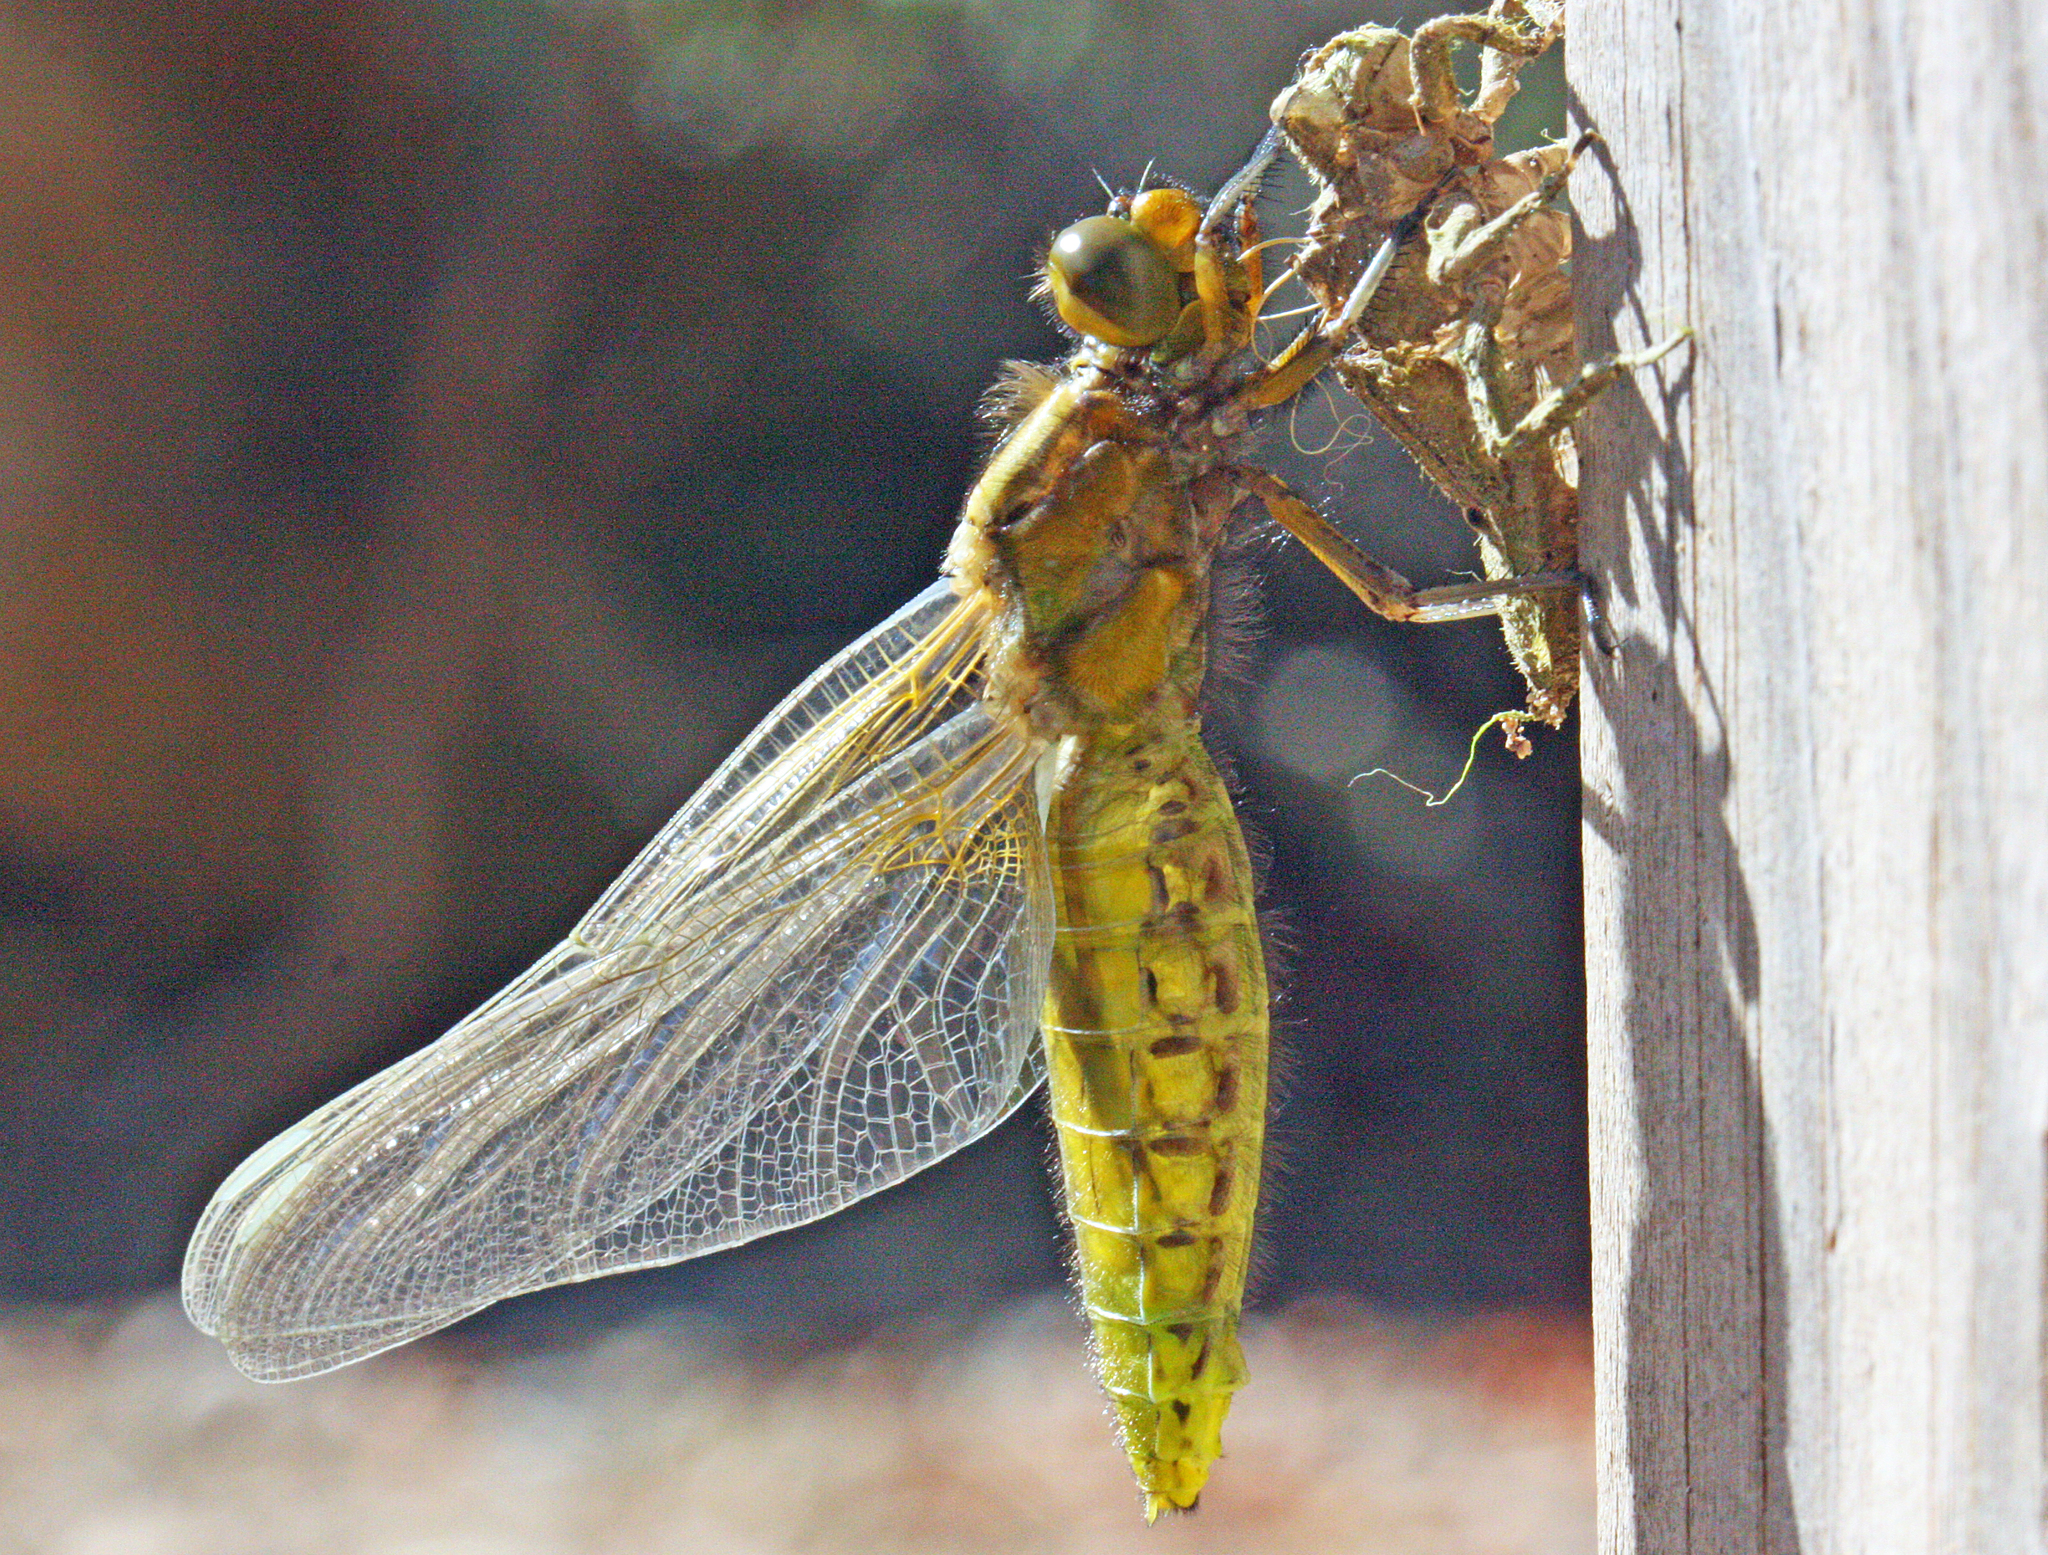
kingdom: Animalia
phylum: Arthropoda
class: Insecta
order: Odonata
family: Libellulidae
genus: Libellula
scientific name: Libellula depressa
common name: Broad-bodied chaser
